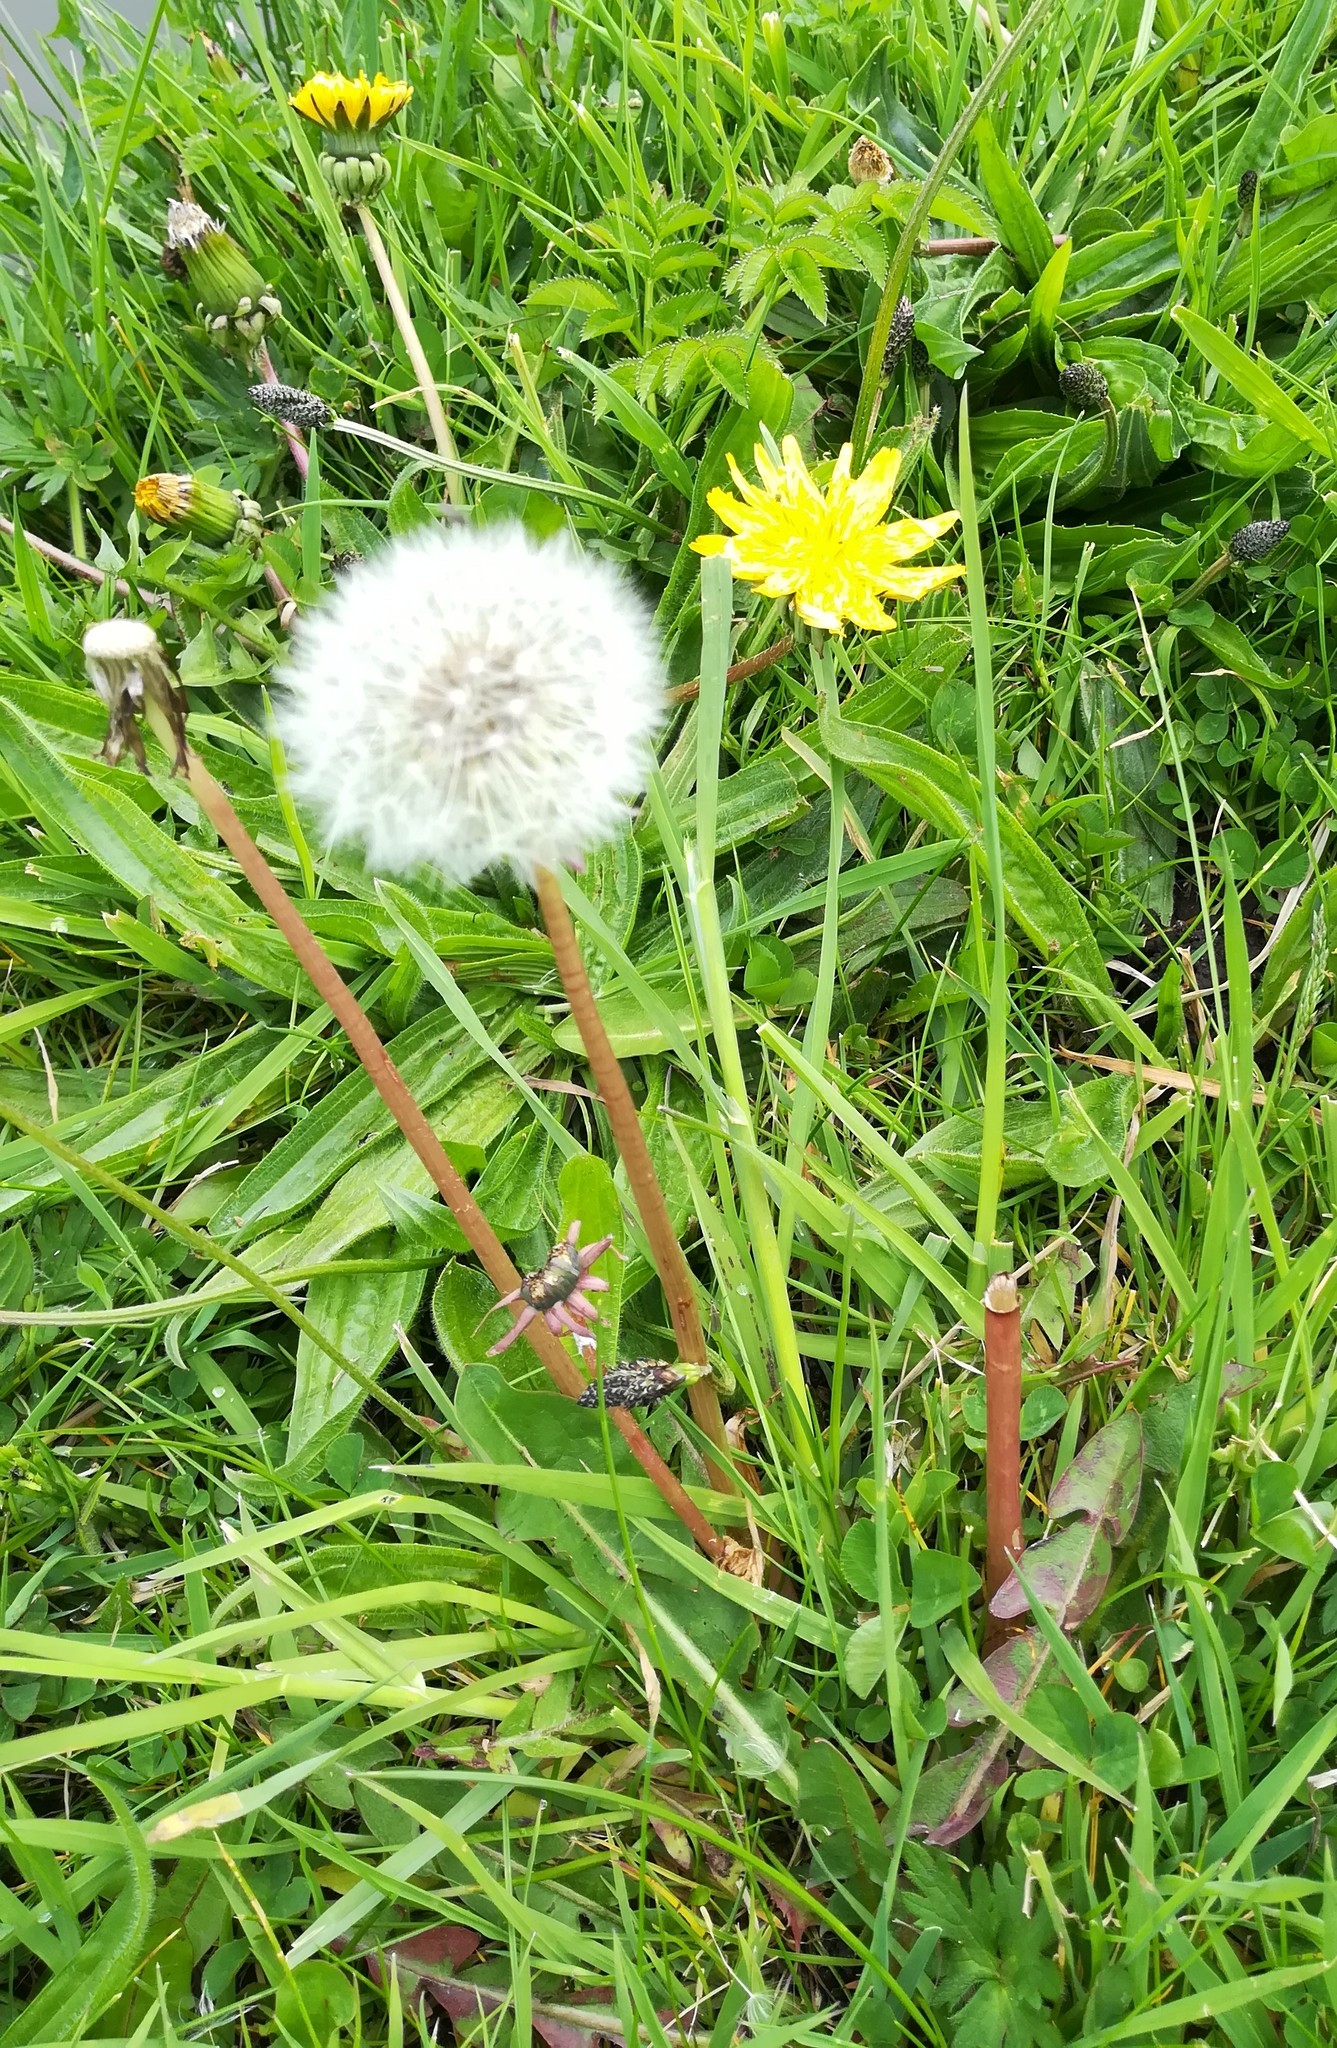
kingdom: Plantae
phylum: Tracheophyta
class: Magnoliopsida
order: Asterales
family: Asteraceae
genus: Taraxacum
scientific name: Taraxacum officinale
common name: Common dandelion
